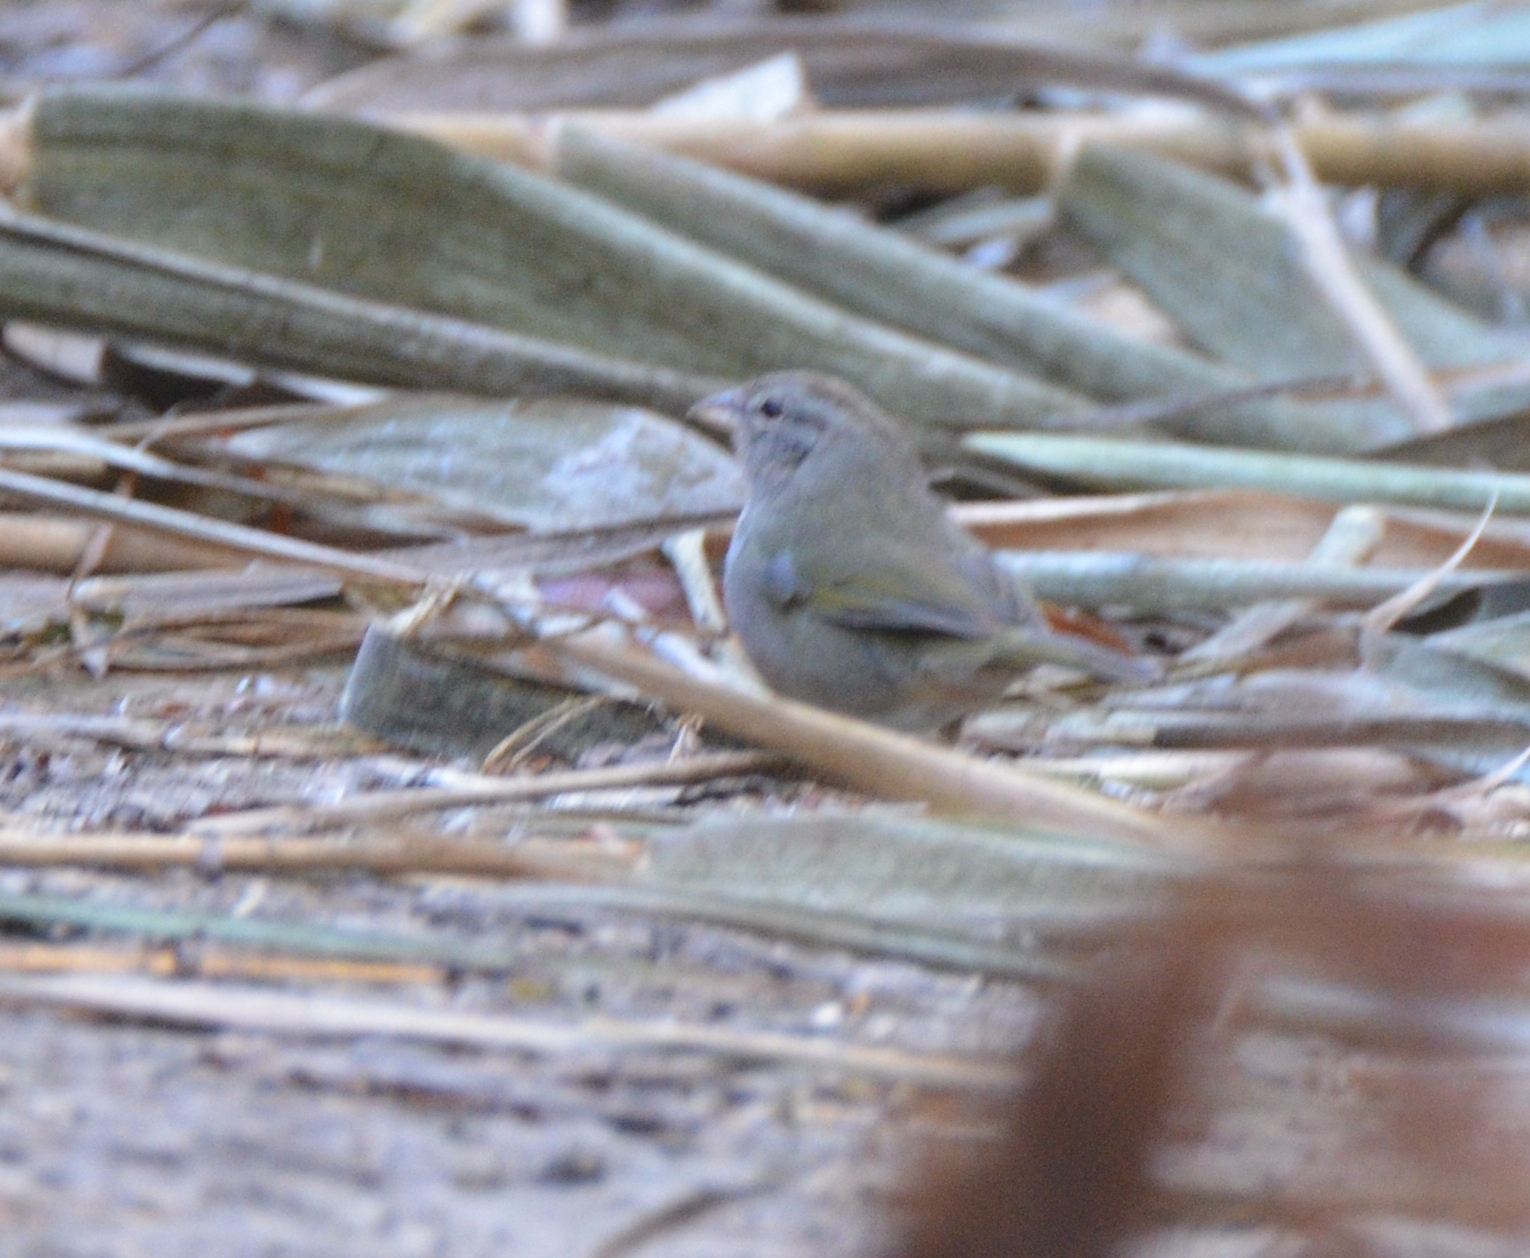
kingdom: Animalia
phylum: Chordata
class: Aves
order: Passeriformes
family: Passerellidae
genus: Arremonops
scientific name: Arremonops rufivirgatus
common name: Olive sparrow
